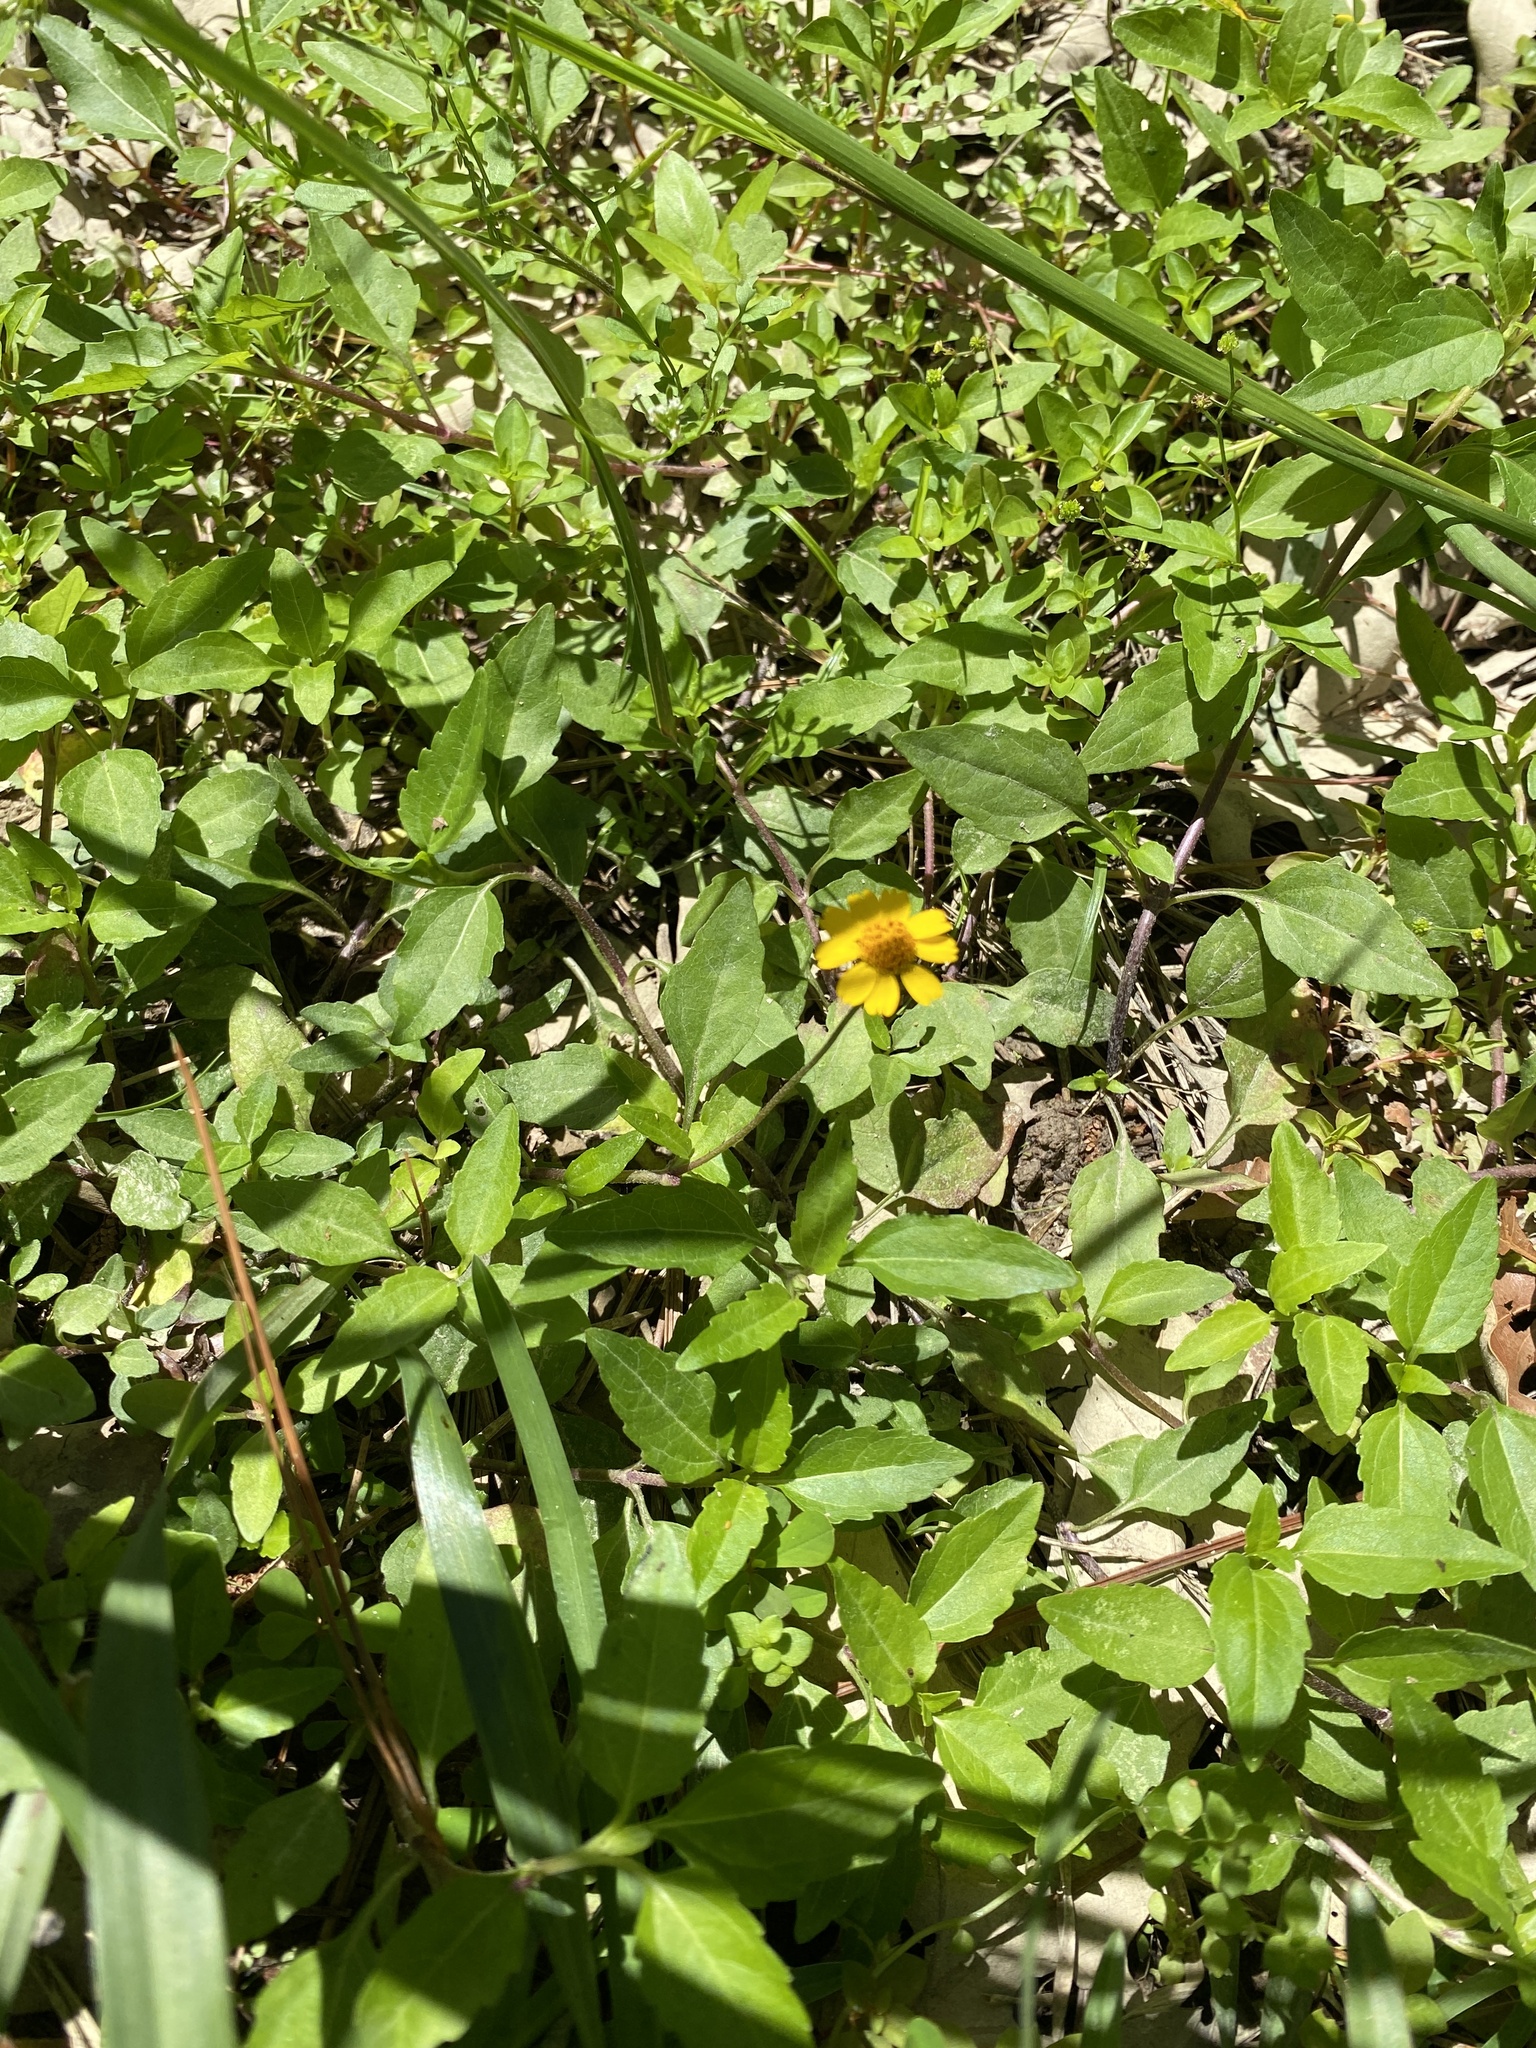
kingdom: Plantae
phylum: Tracheophyta
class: Magnoliopsida
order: Asterales
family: Asteraceae
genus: Acmella
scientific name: Acmella repens
